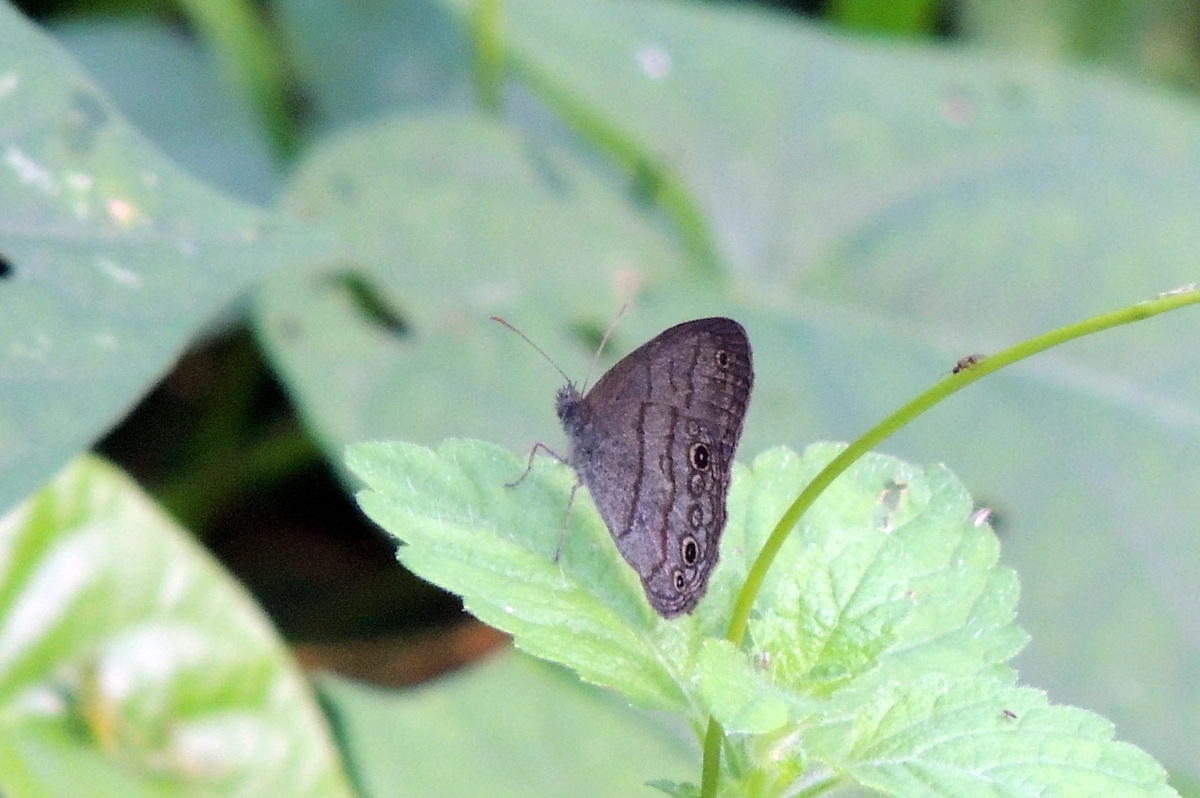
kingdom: Animalia
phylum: Arthropoda
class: Insecta
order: Lepidoptera
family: Nymphalidae
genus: Hermeuptychia
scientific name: Hermeuptychia hermes
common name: Hermes satyr
